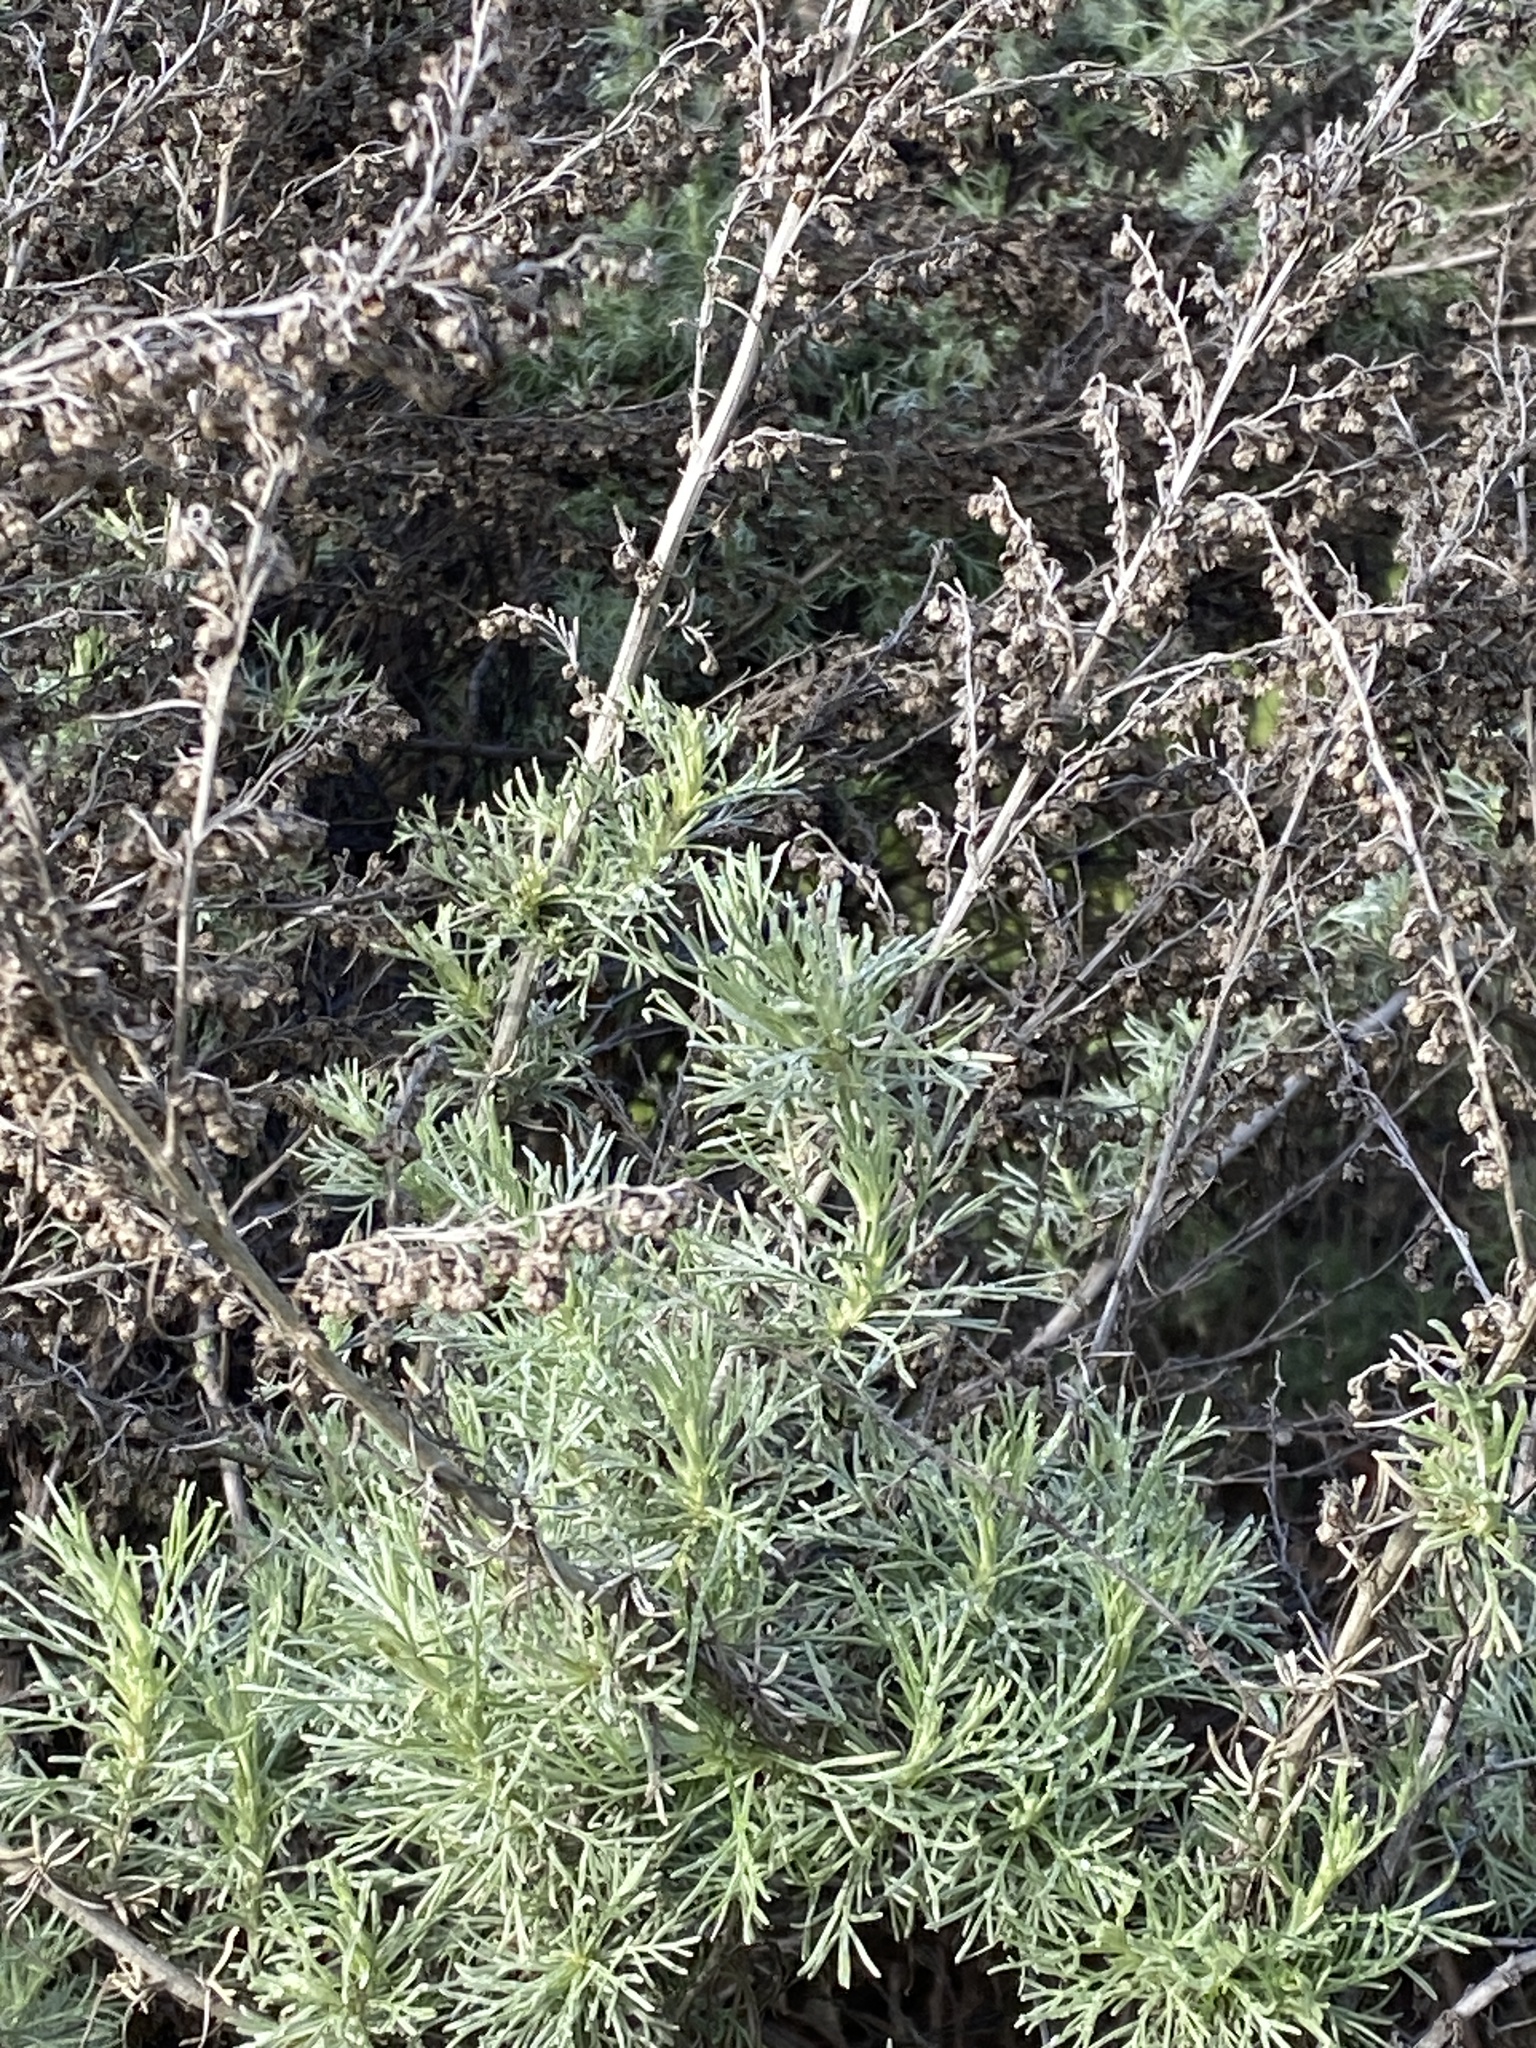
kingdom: Plantae
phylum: Tracheophyta
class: Magnoliopsida
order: Asterales
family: Asteraceae
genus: Artemisia
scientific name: Artemisia californica
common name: California sagebrush
